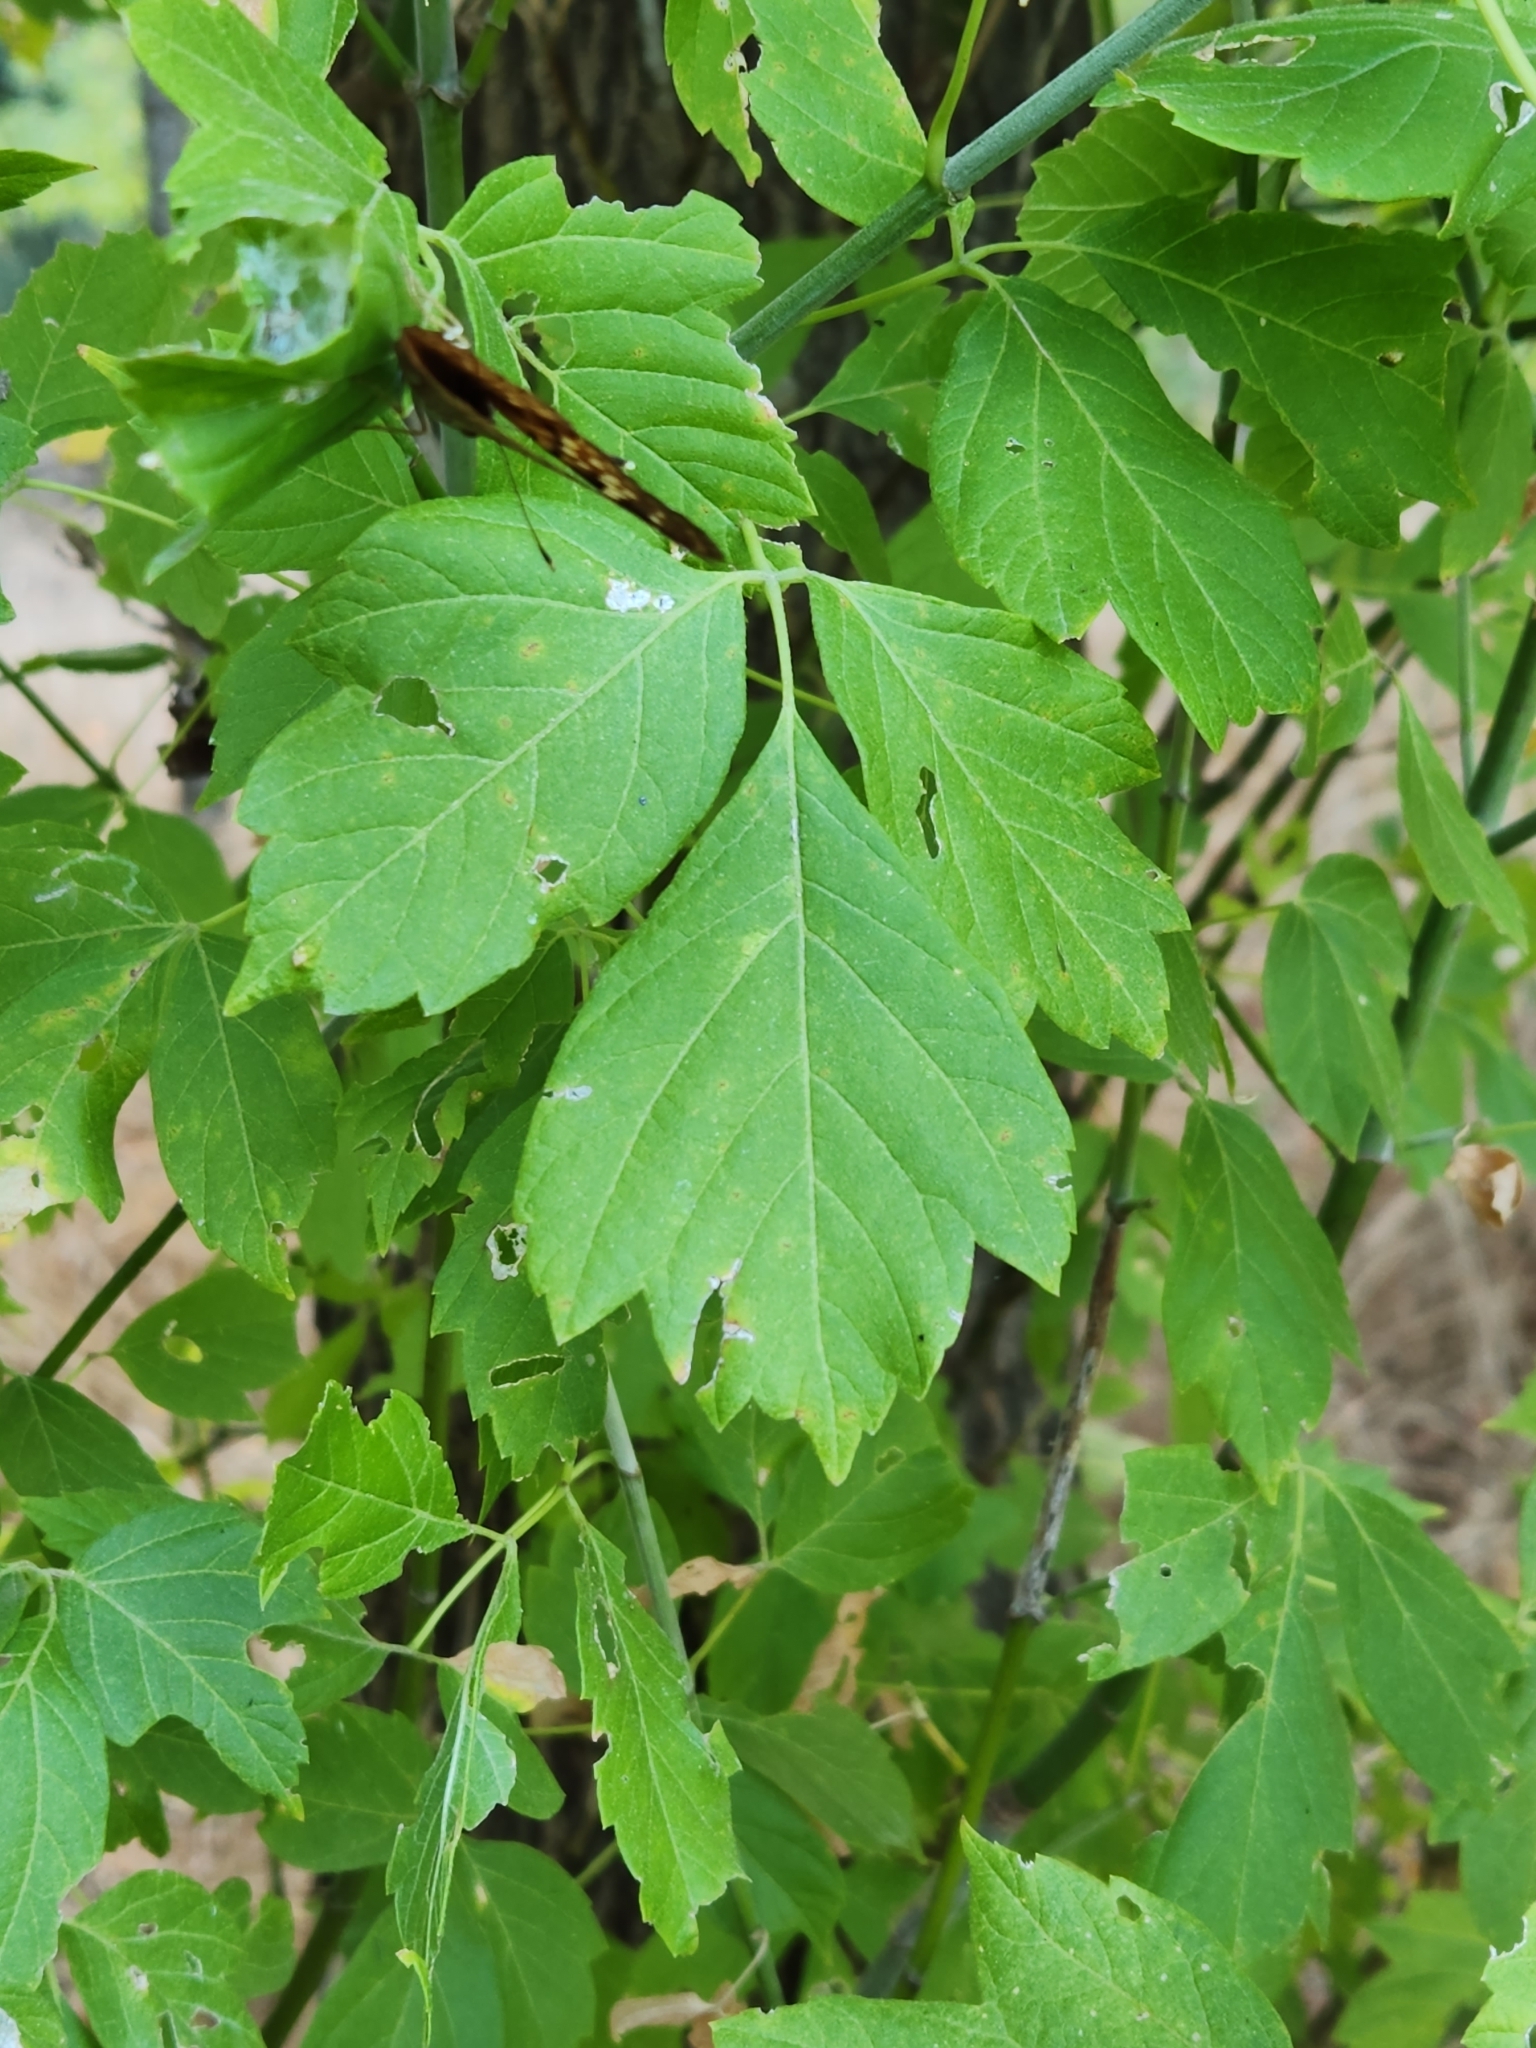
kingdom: Plantae
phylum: Tracheophyta
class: Magnoliopsida
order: Sapindales
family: Sapindaceae
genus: Acer
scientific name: Acer negundo
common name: Ashleaf maple
